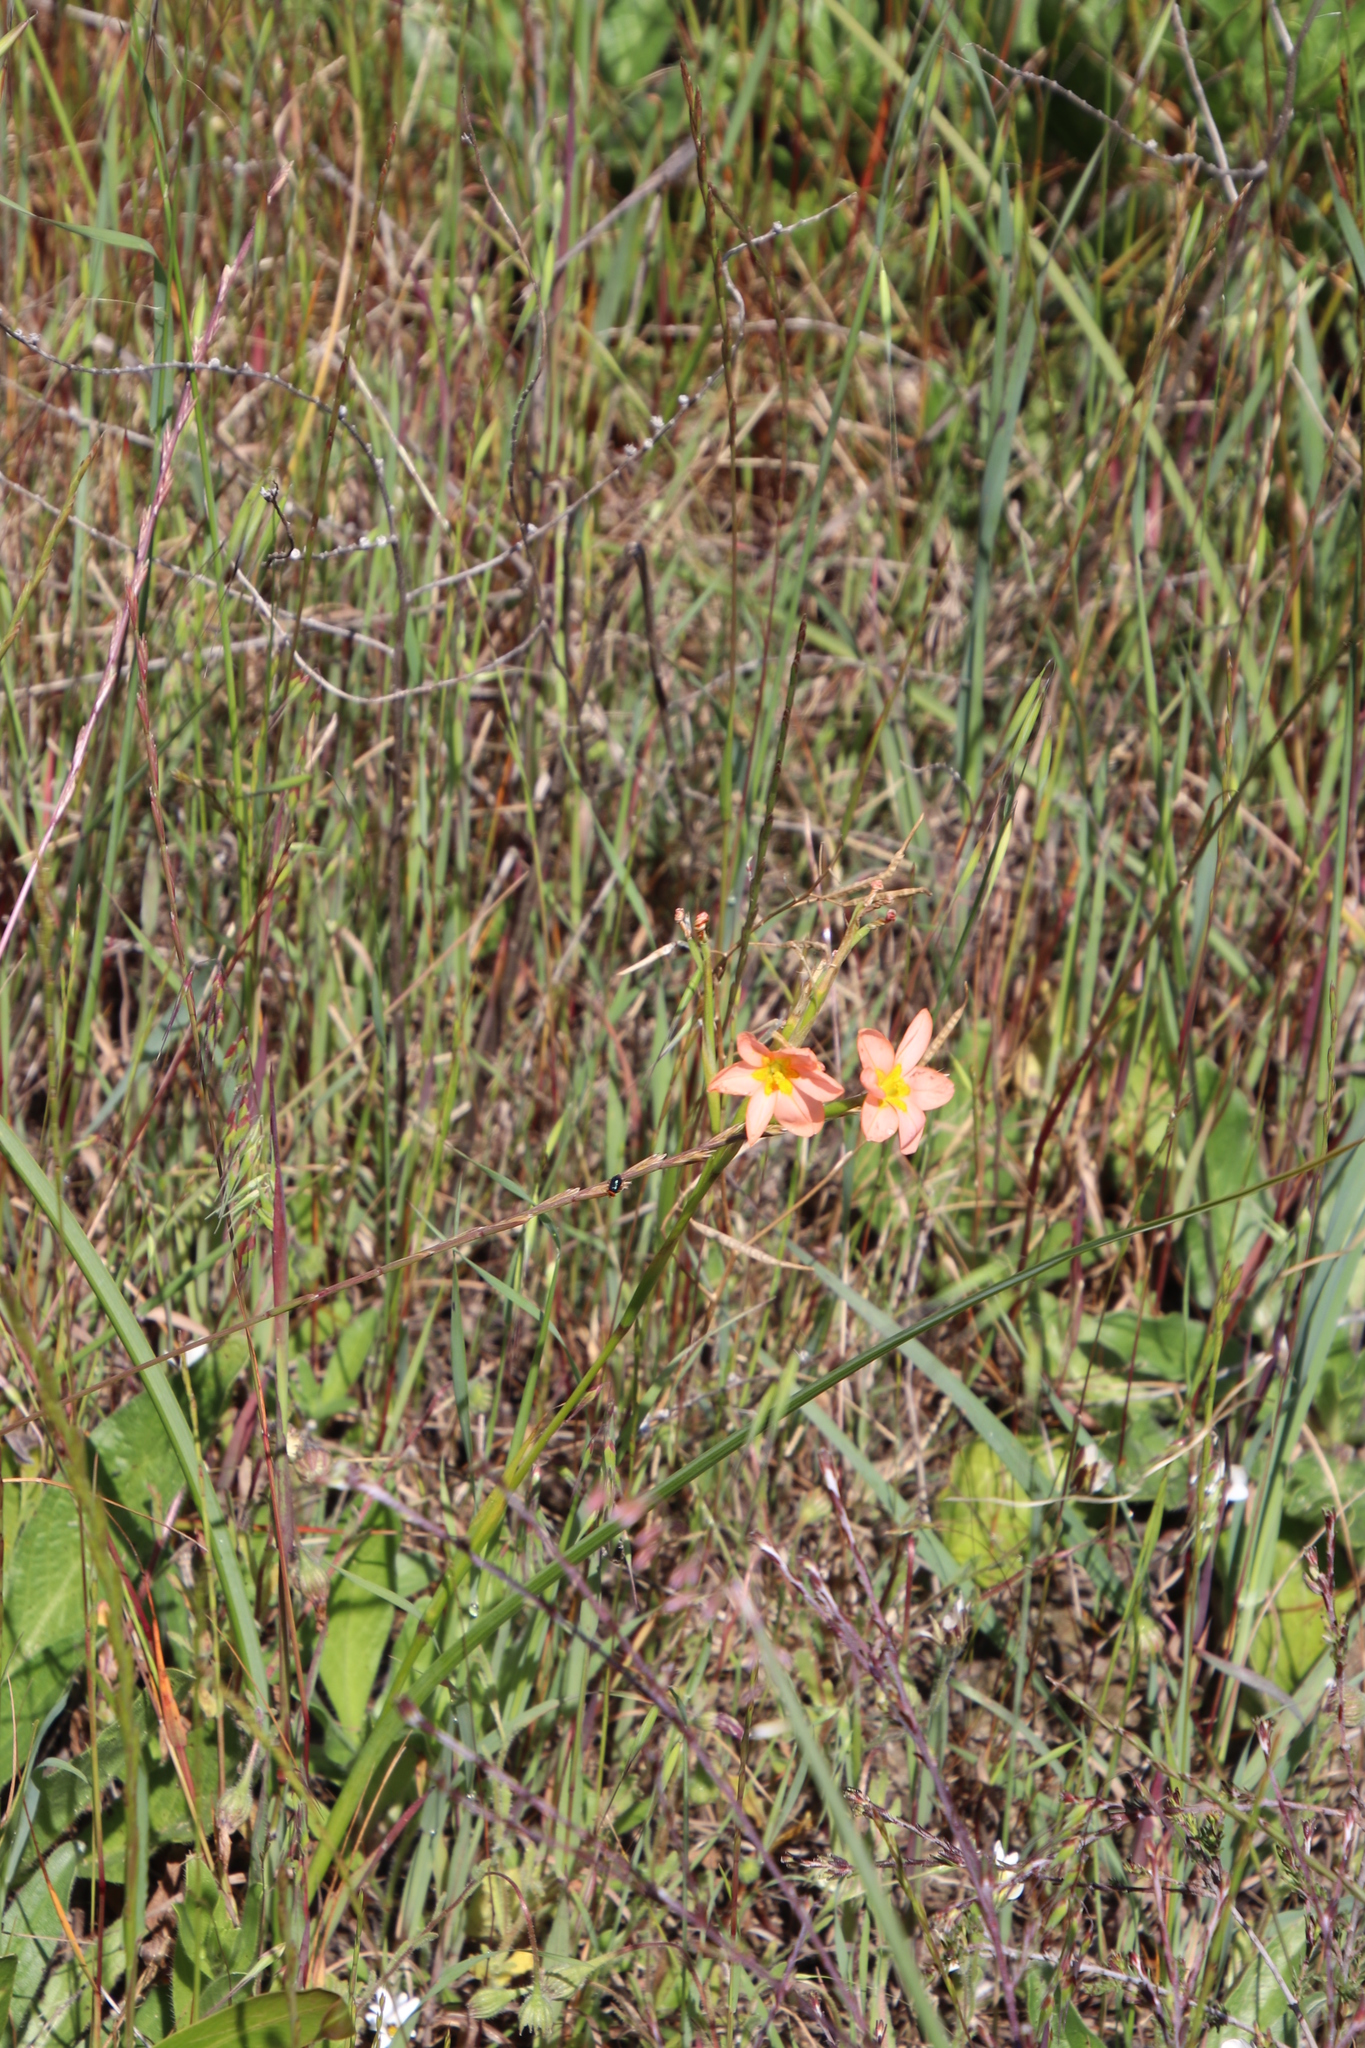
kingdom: Plantae
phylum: Tracheophyta
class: Liliopsida
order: Asparagales
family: Iridaceae
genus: Moraea
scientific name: Moraea miniata
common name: Two-leaf cape-tulip
